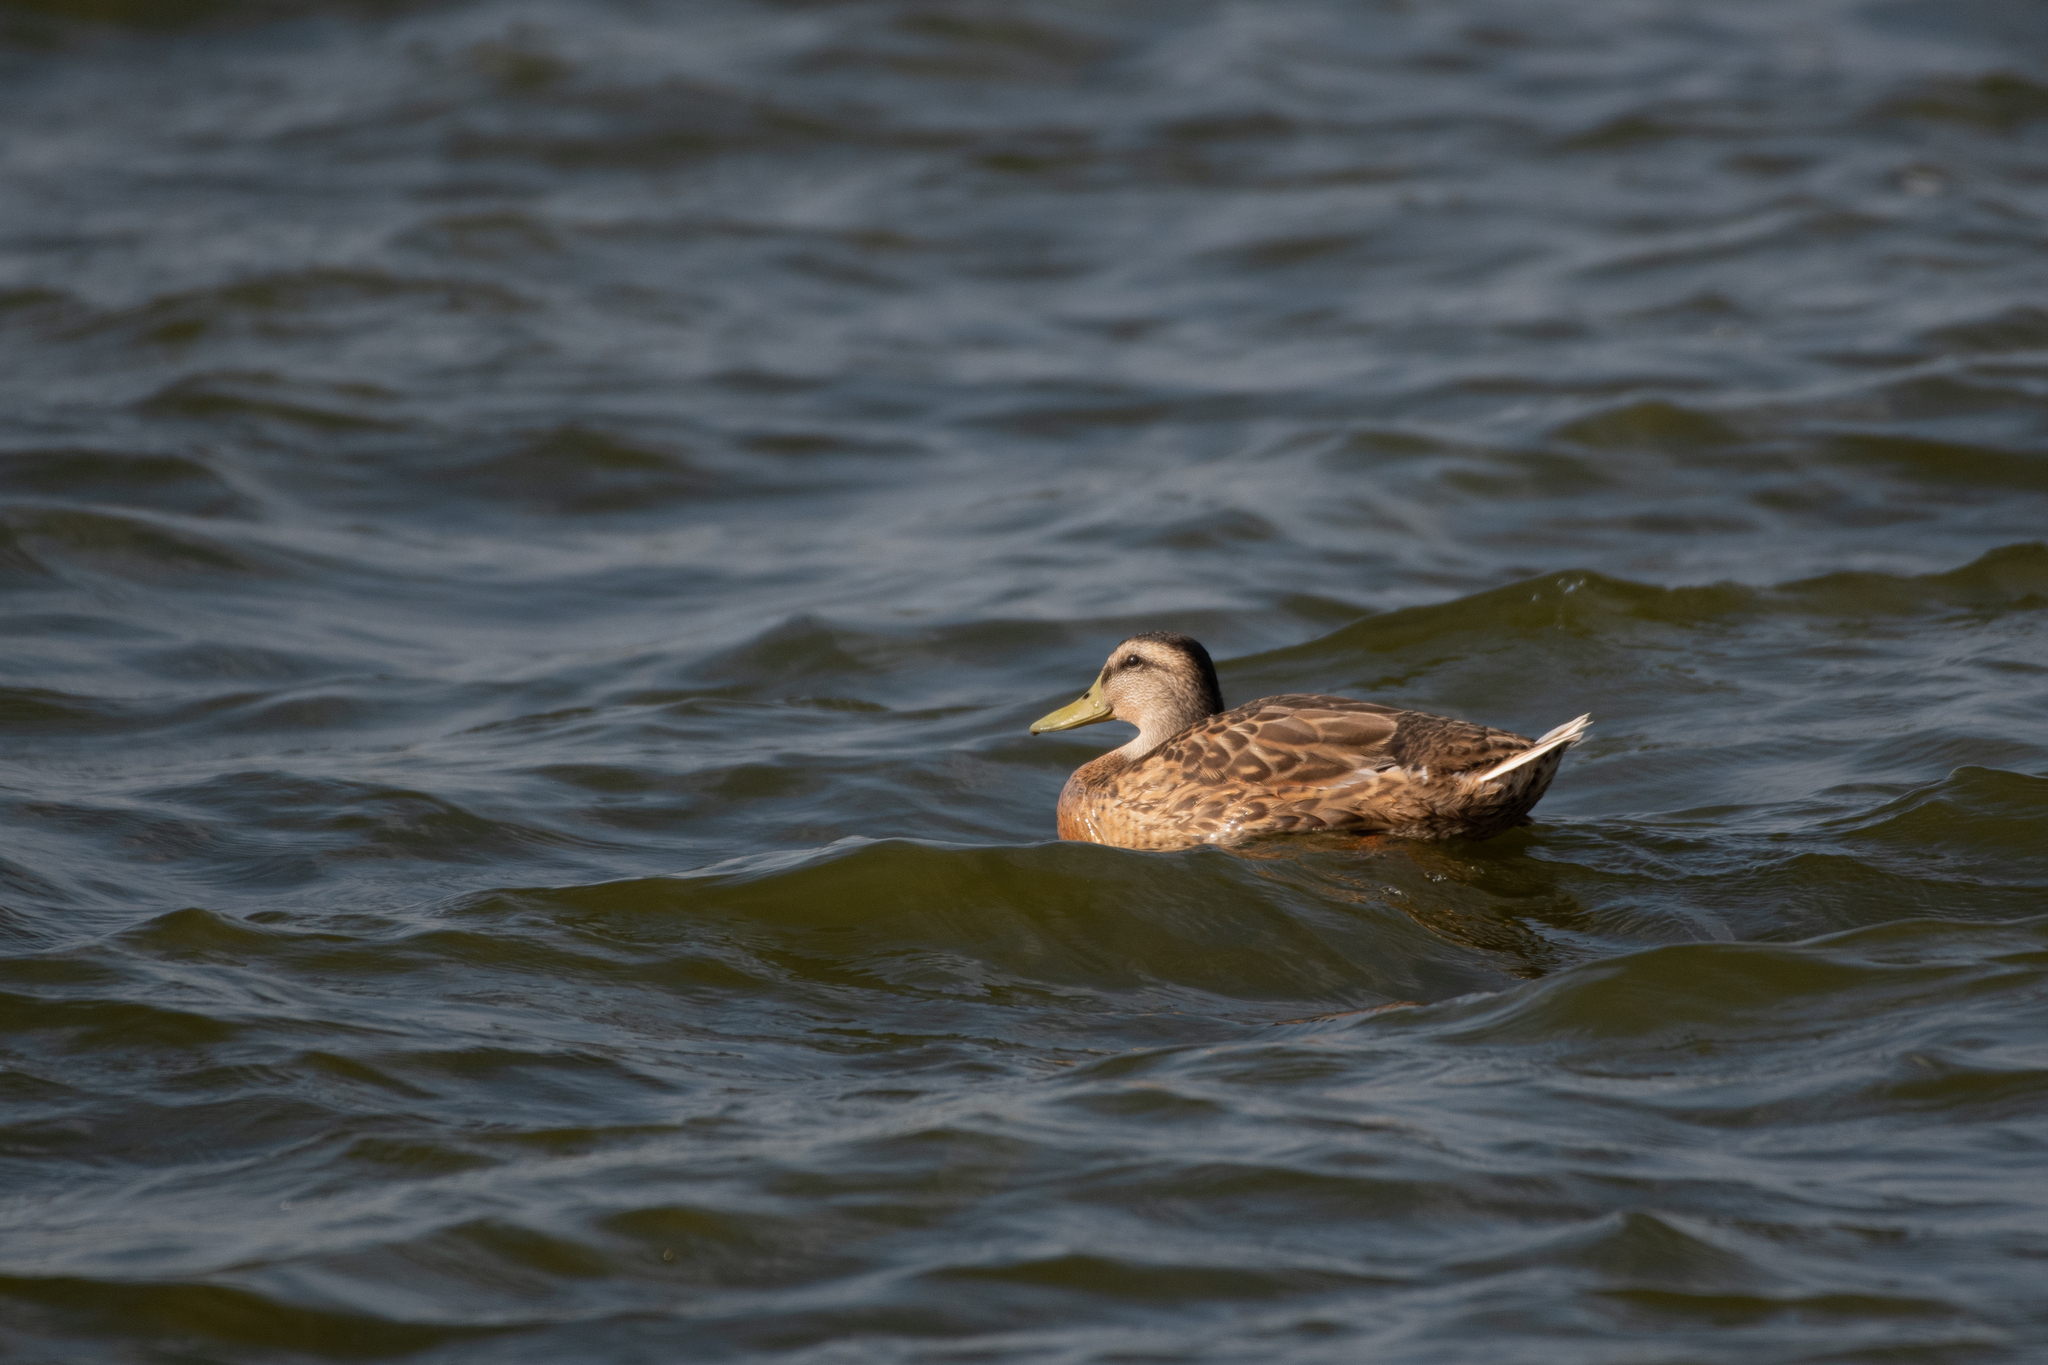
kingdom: Animalia
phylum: Chordata
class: Aves
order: Anseriformes
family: Anatidae
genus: Anas
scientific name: Anas platyrhynchos
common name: Mallard
